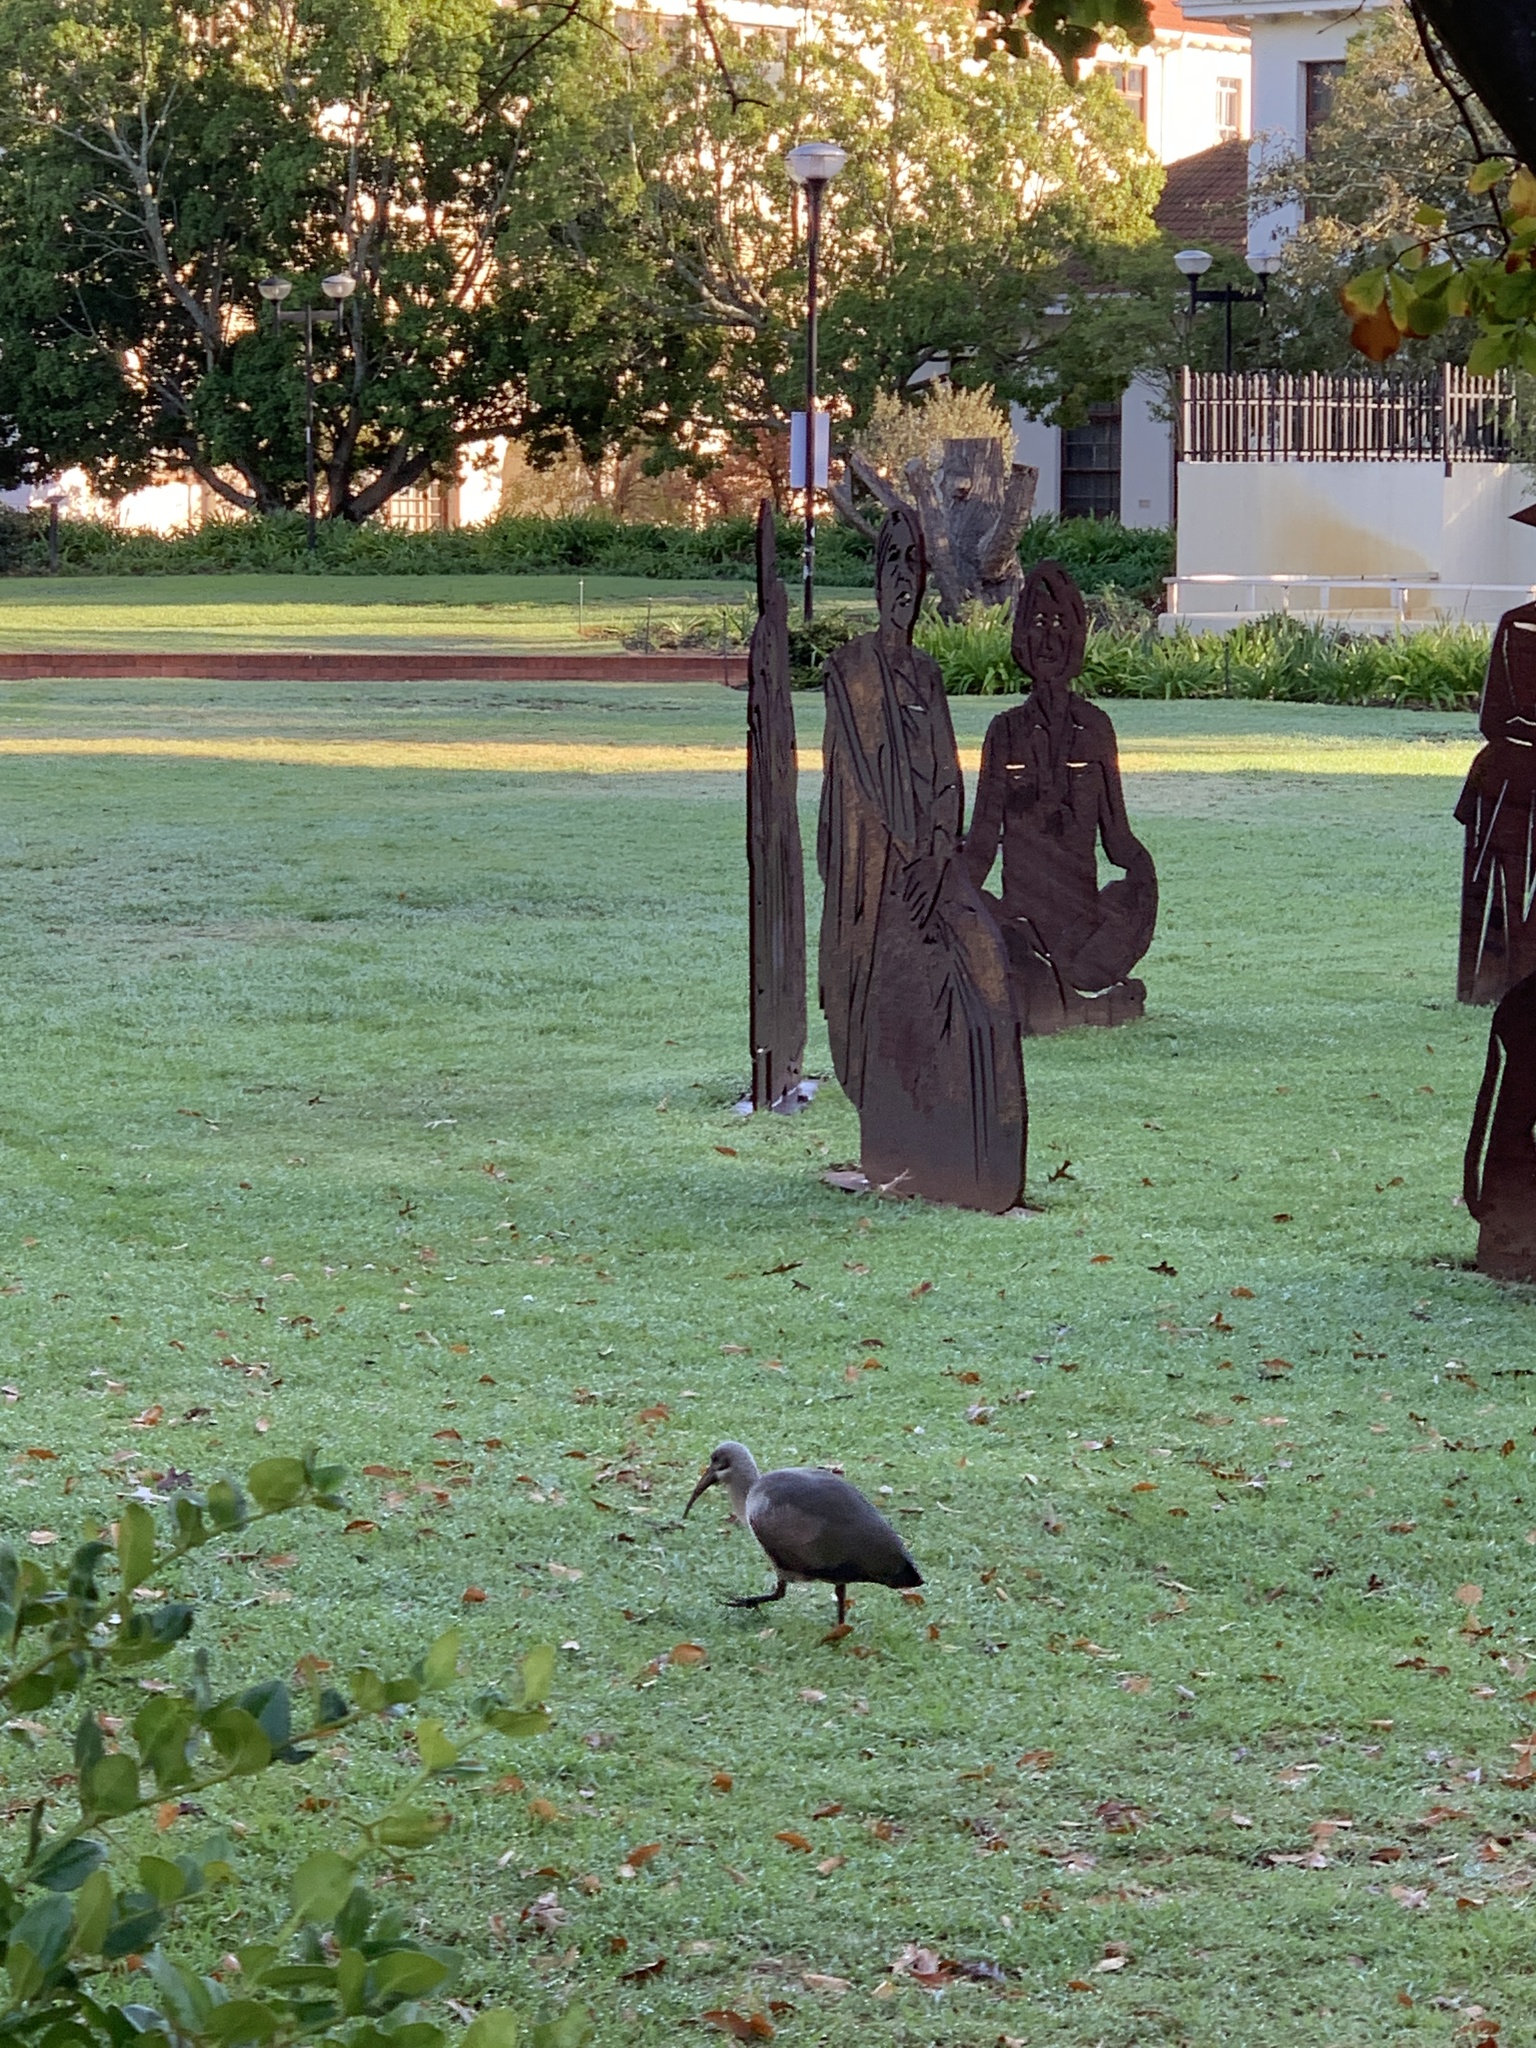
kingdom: Animalia
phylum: Chordata
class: Aves
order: Pelecaniformes
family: Threskiornithidae
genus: Bostrychia
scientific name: Bostrychia hagedash
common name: Hadada ibis
